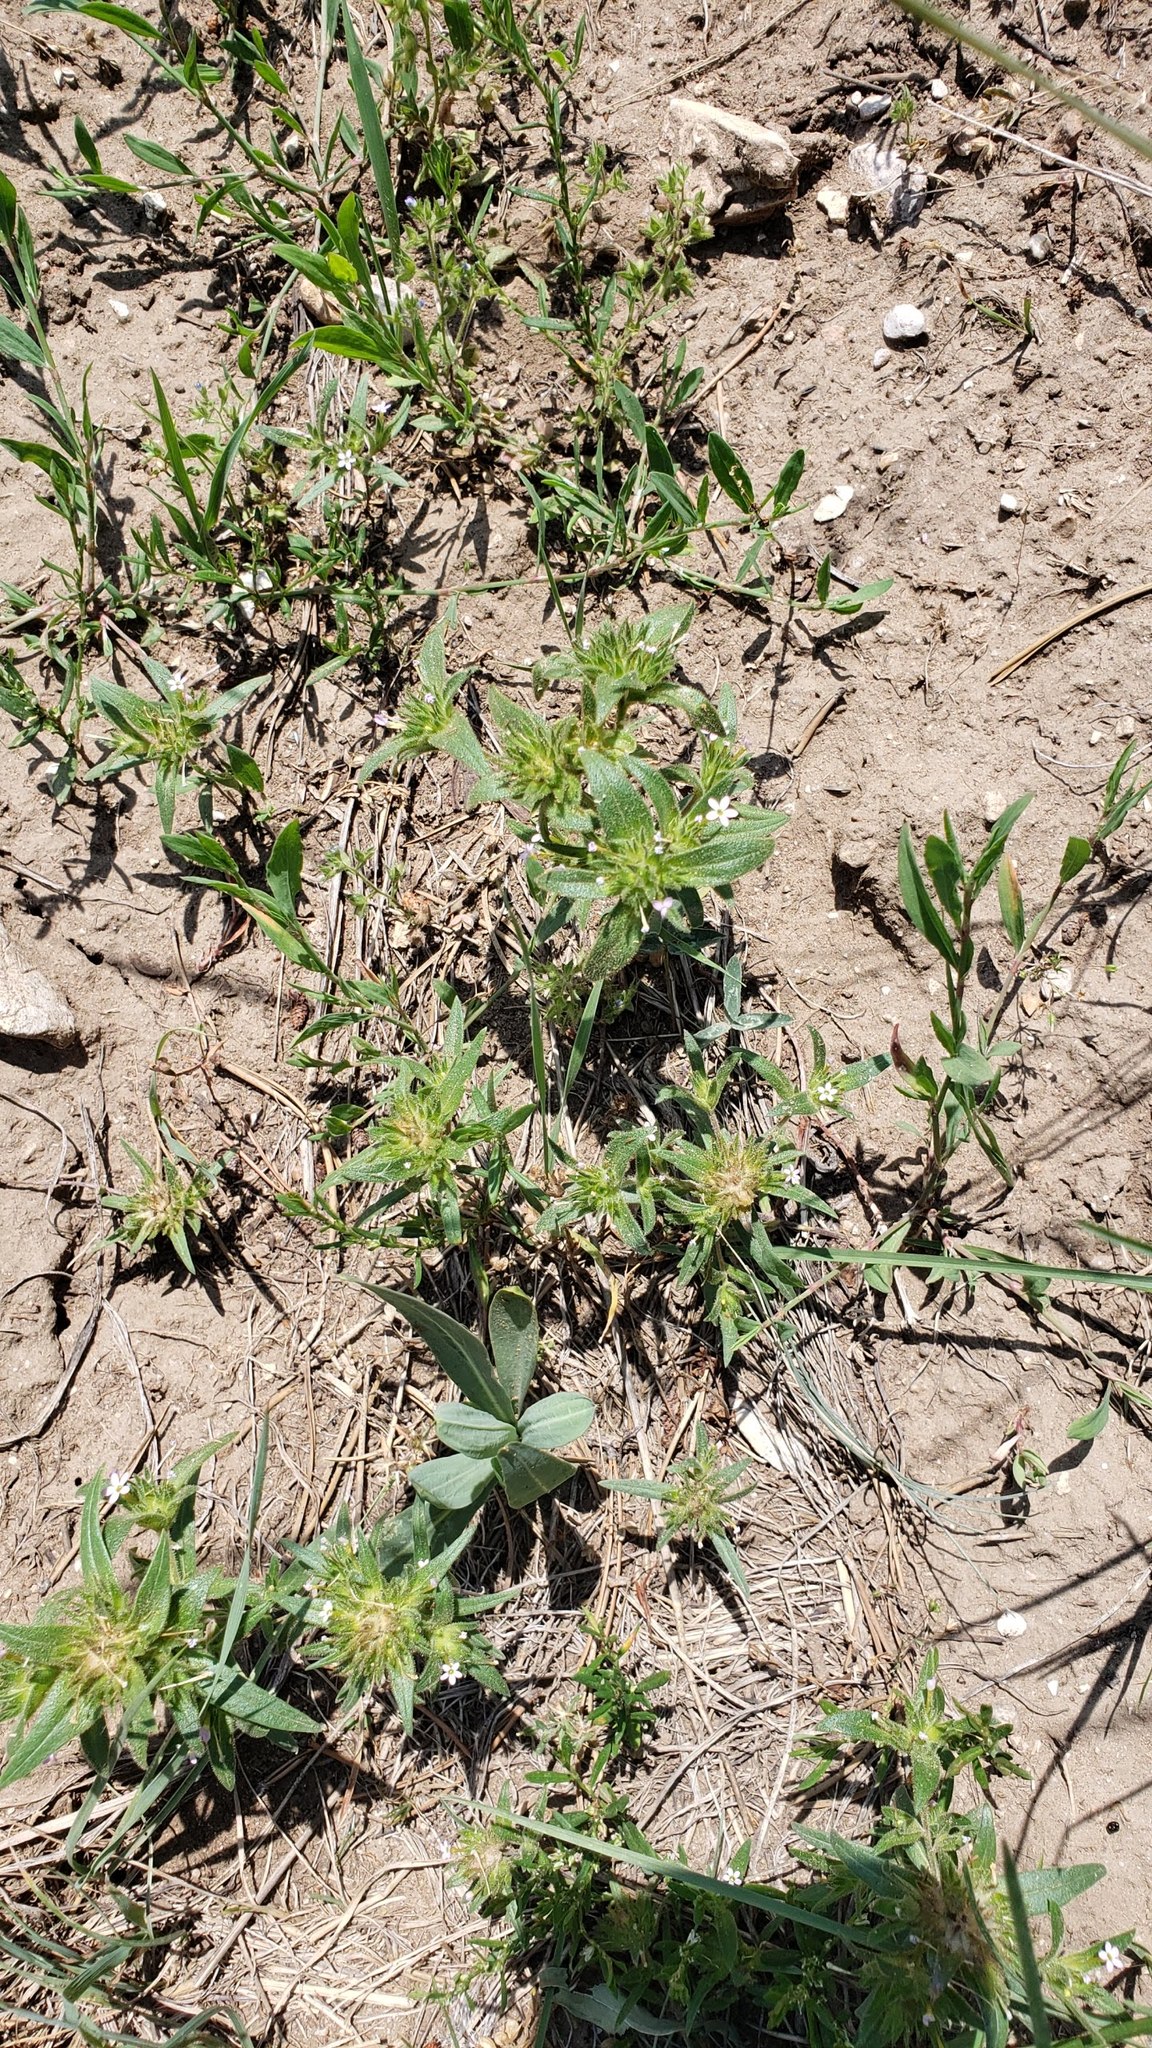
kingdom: Plantae
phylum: Tracheophyta
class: Magnoliopsida
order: Ericales
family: Polemoniaceae
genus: Collomia
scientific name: Collomia linearis
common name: Tiny trumpet
